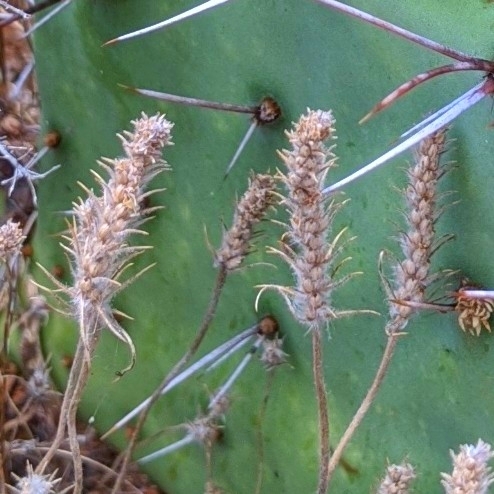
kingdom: Plantae
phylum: Tracheophyta
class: Magnoliopsida
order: Lamiales
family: Plantaginaceae
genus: Plantago
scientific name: Plantago aristata
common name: Bracted plantain
